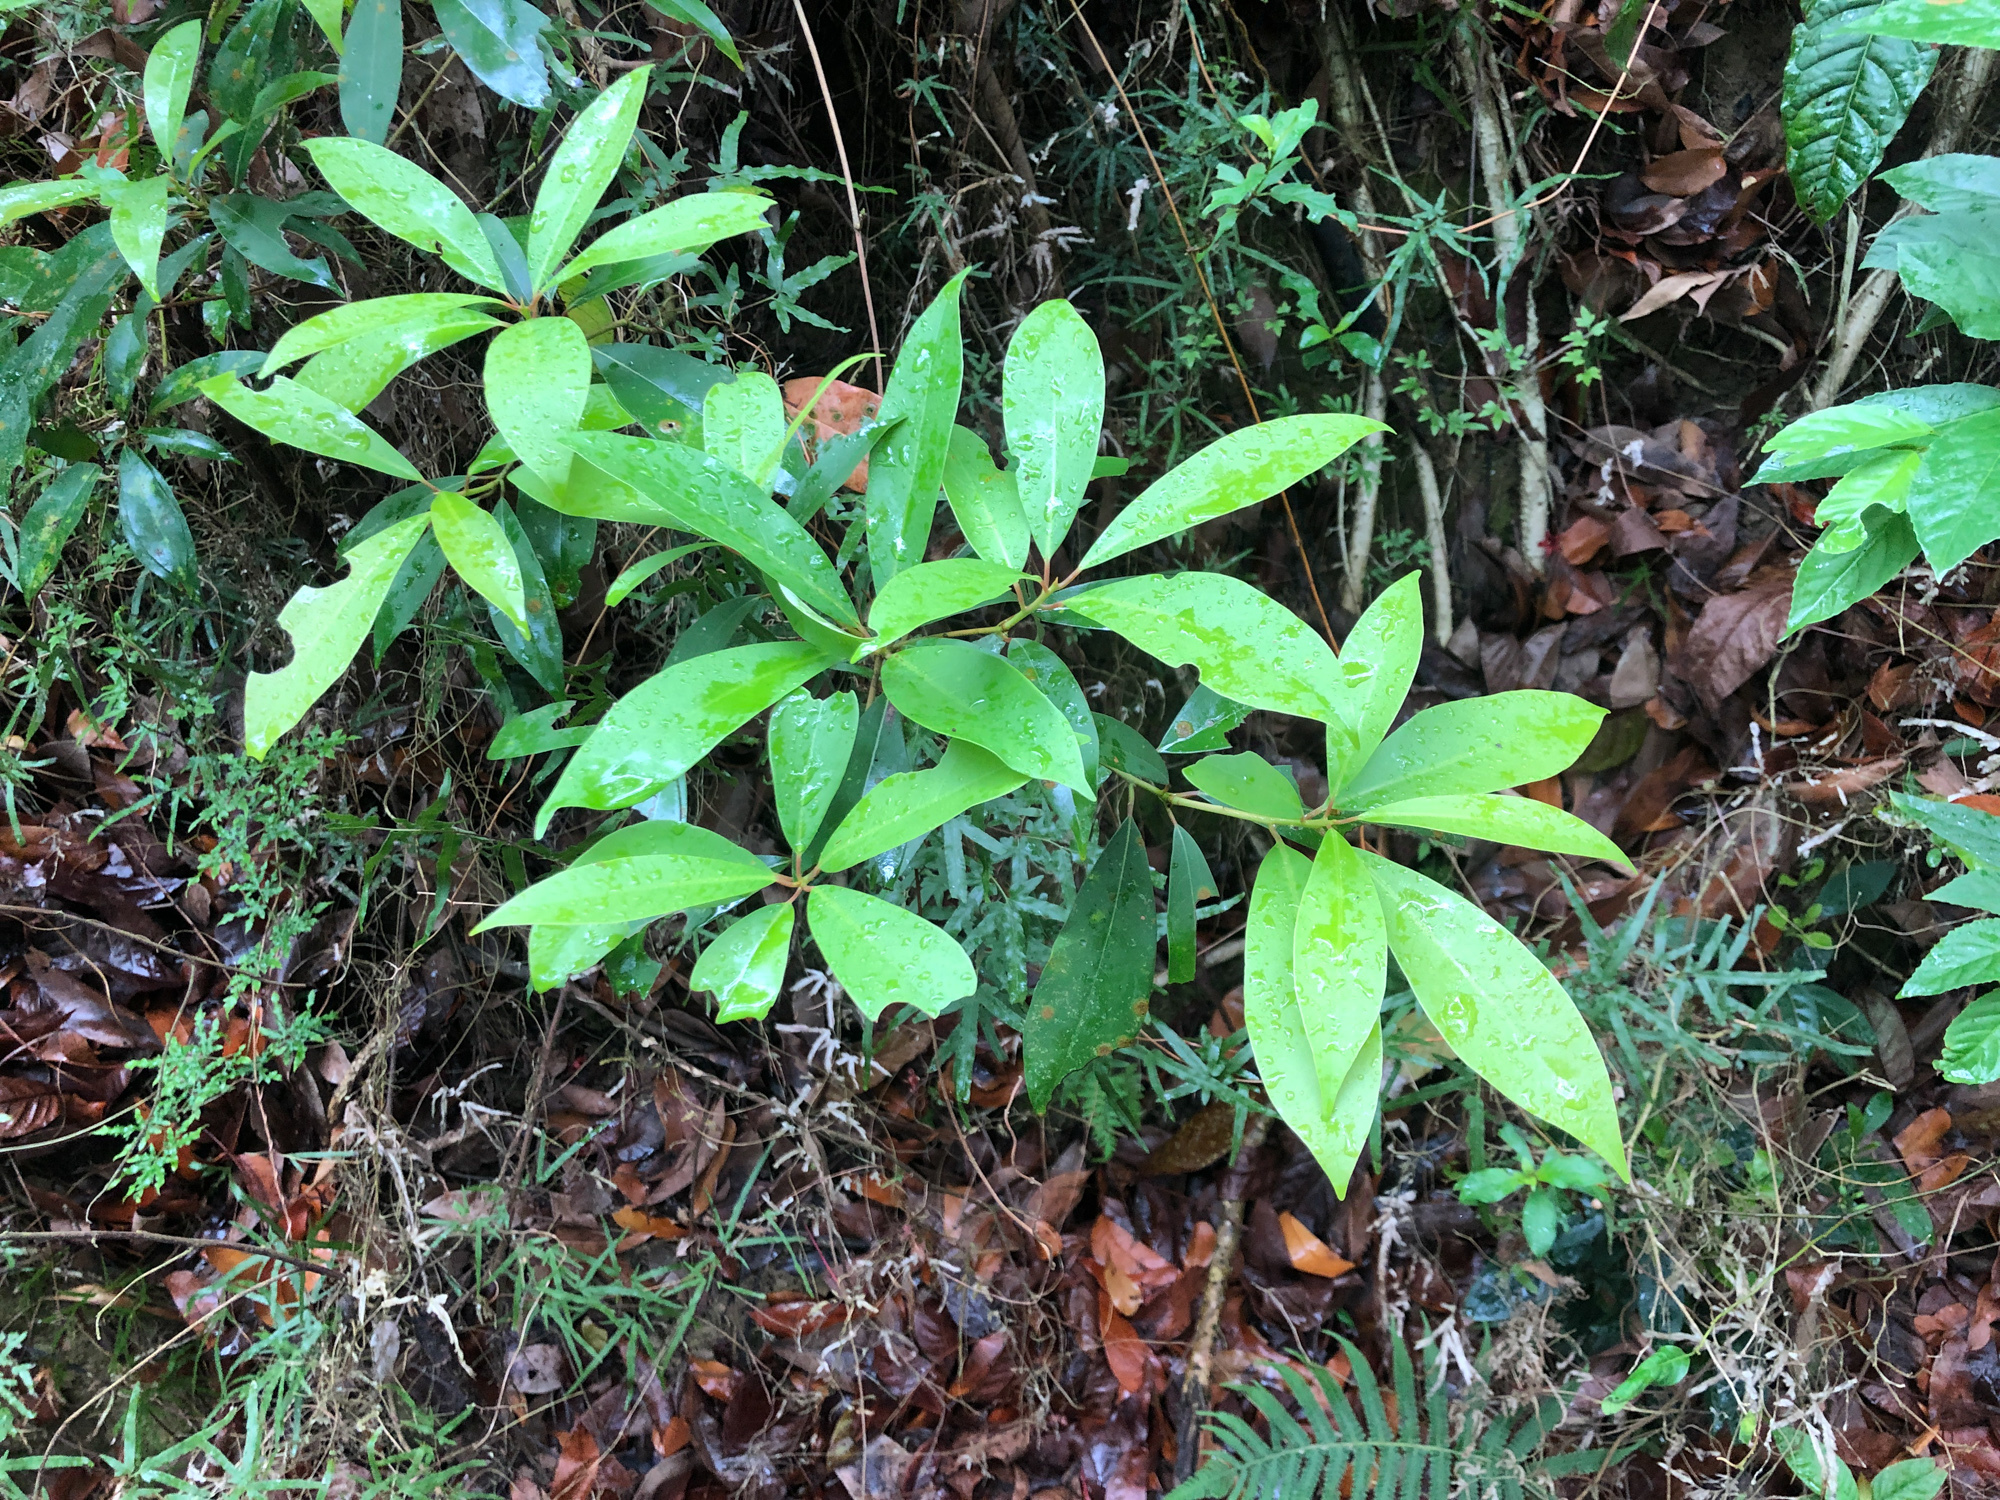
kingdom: Plantae
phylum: Tracheophyta
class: Magnoliopsida
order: Laurales
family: Lauraceae
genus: Machilus
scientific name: Machilus zuihoensis
